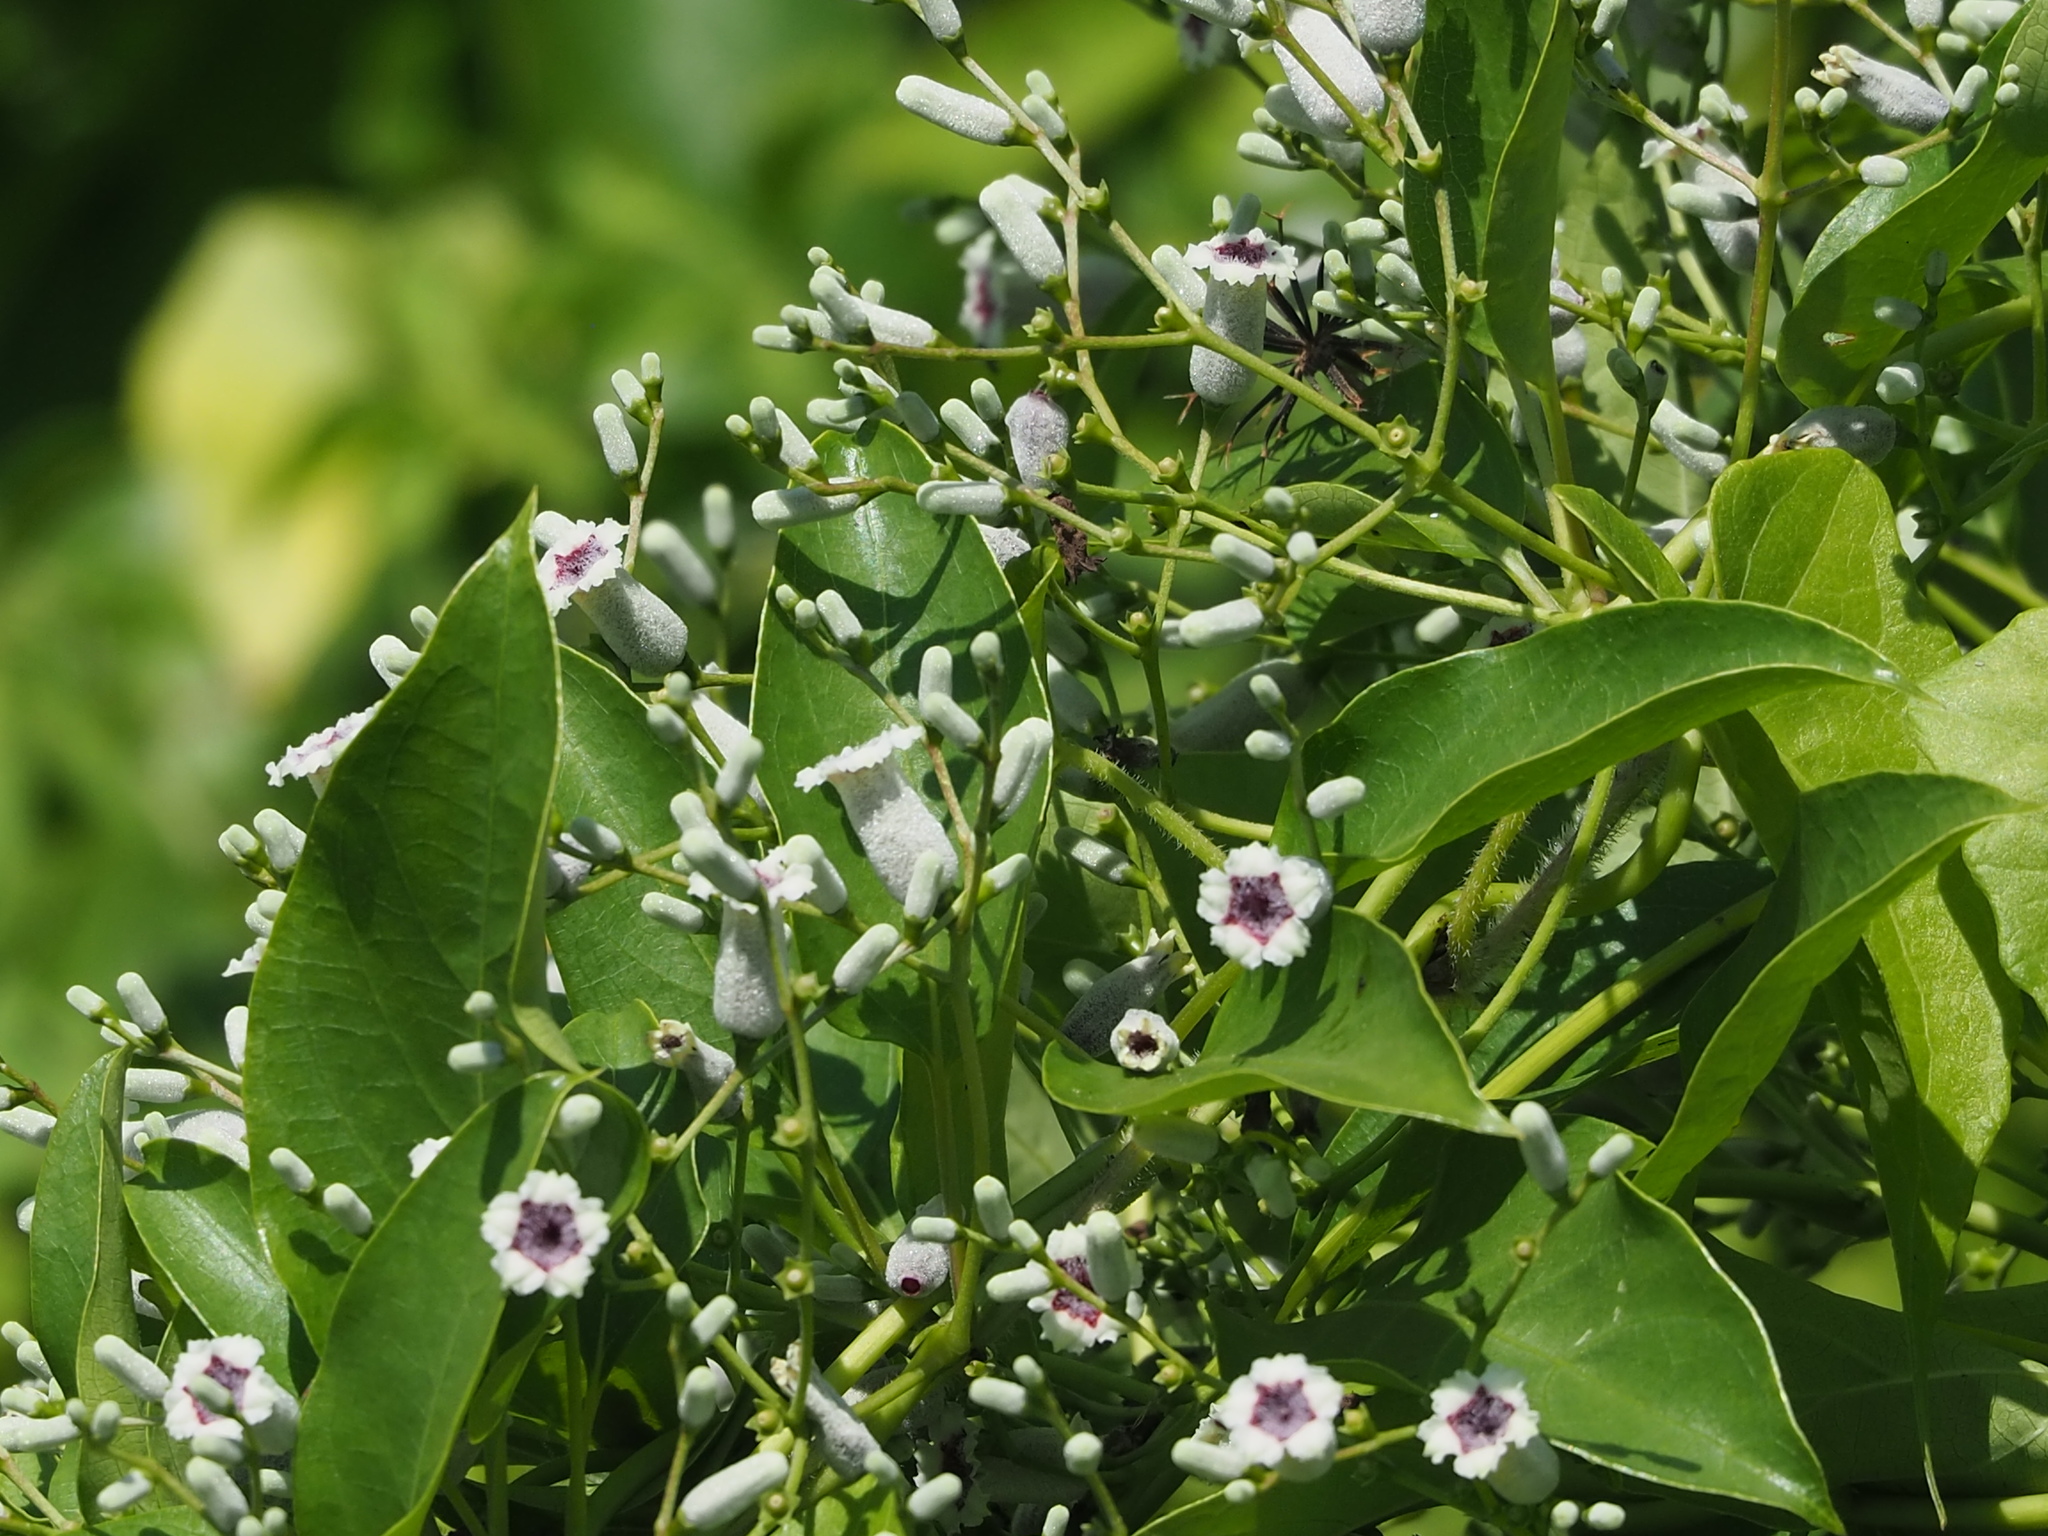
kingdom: Plantae
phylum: Tracheophyta
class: Magnoliopsida
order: Gentianales
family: Rubiaceae
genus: Paederia
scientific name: Paederia foetida
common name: Stinkvine
